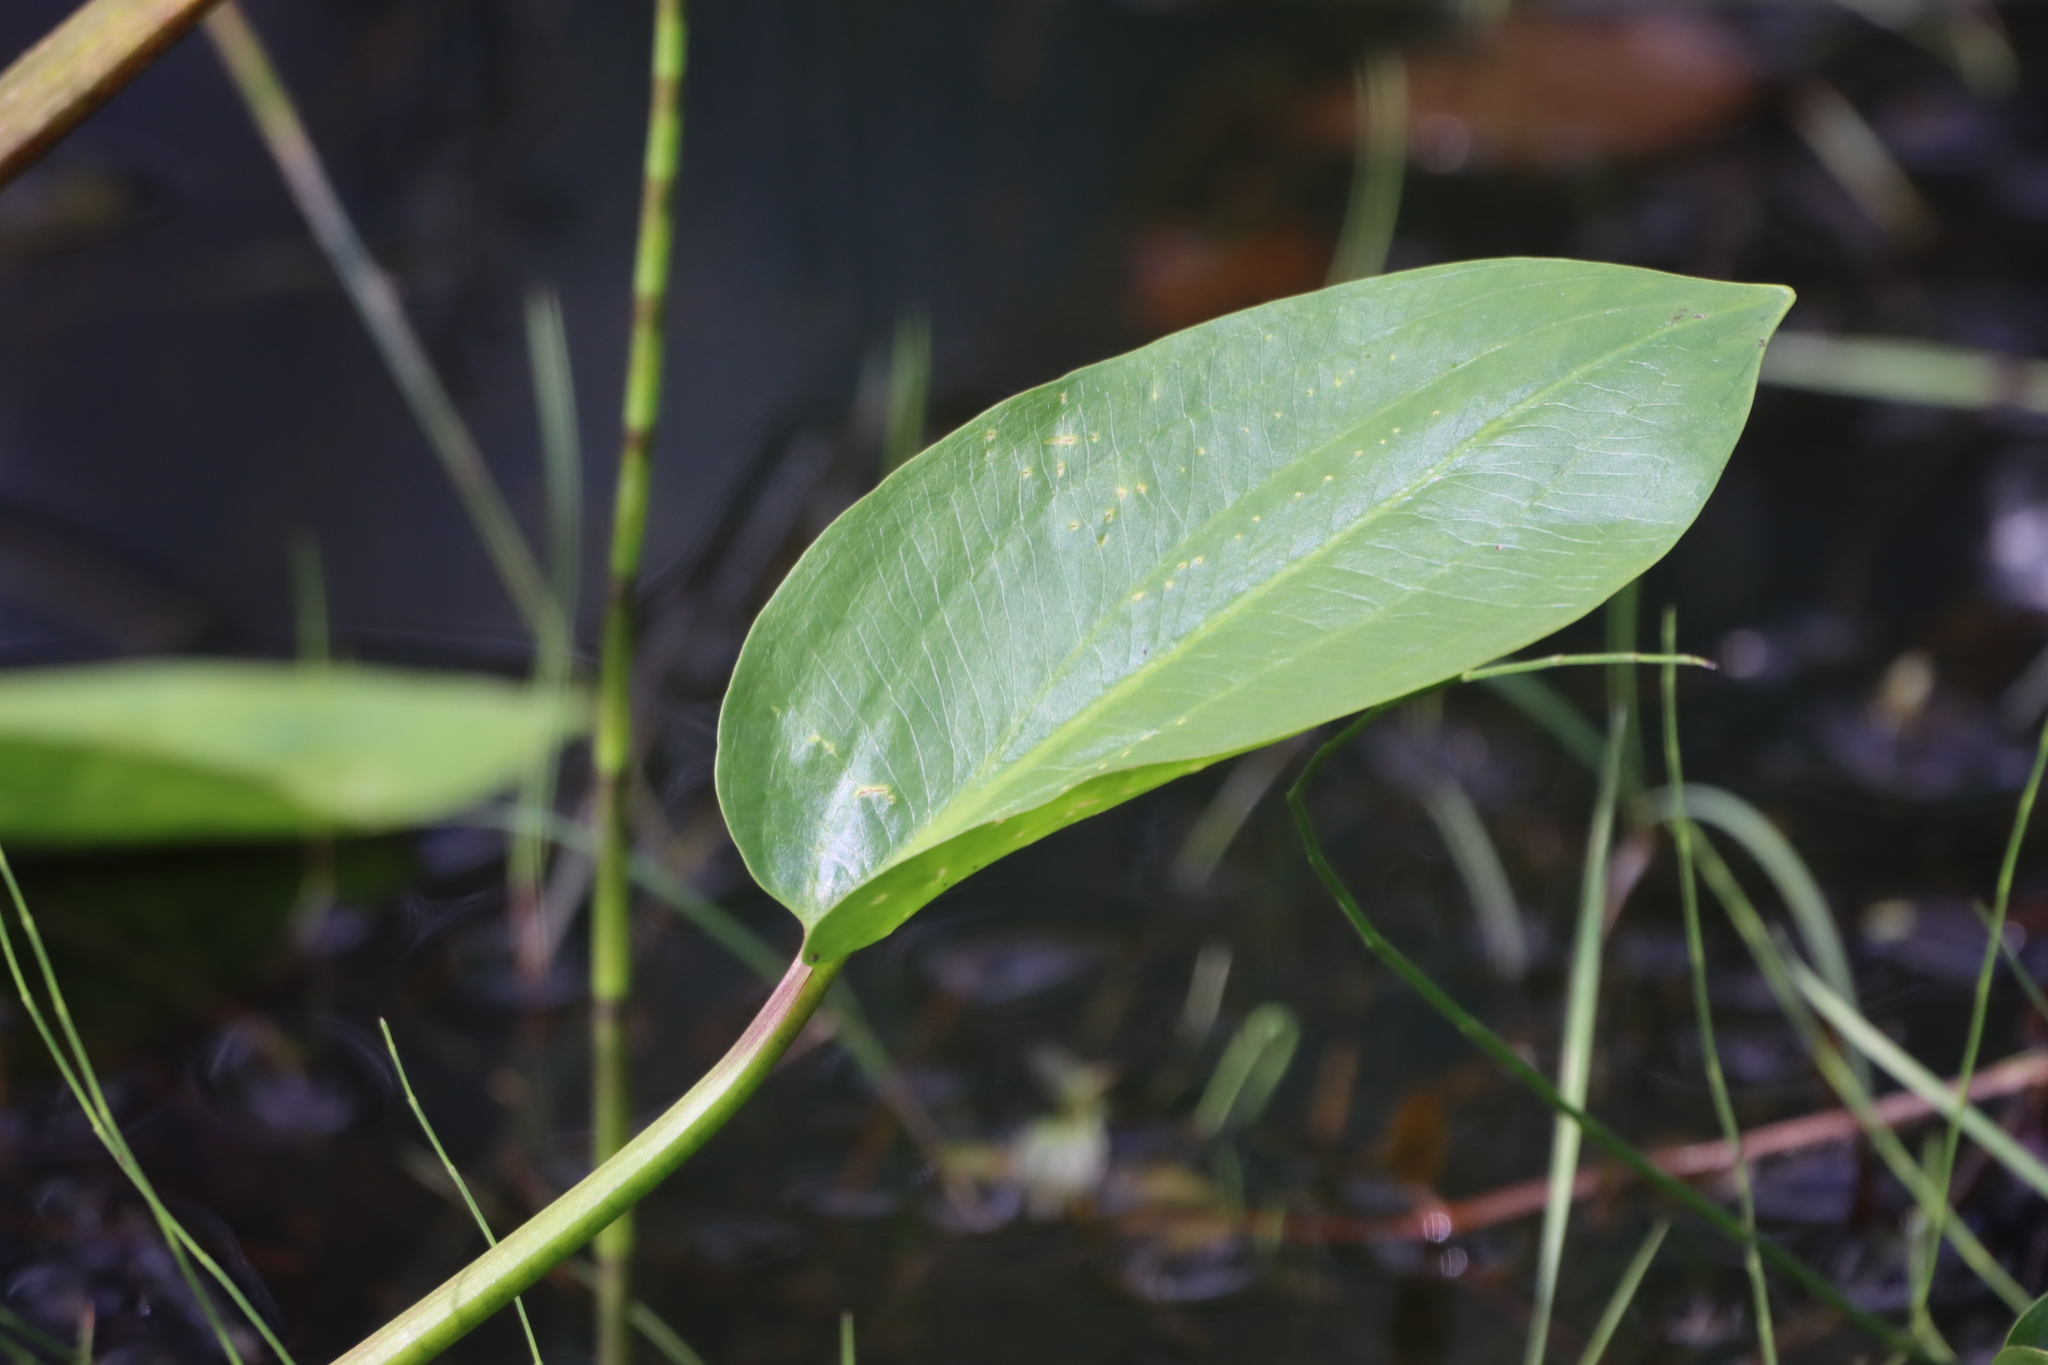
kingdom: Plantae
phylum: Tracheophyta
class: Liliopsida
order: Alismatales
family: Alismataceae
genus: Alisma
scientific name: Alisma triviale
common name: Northern water-plantain
